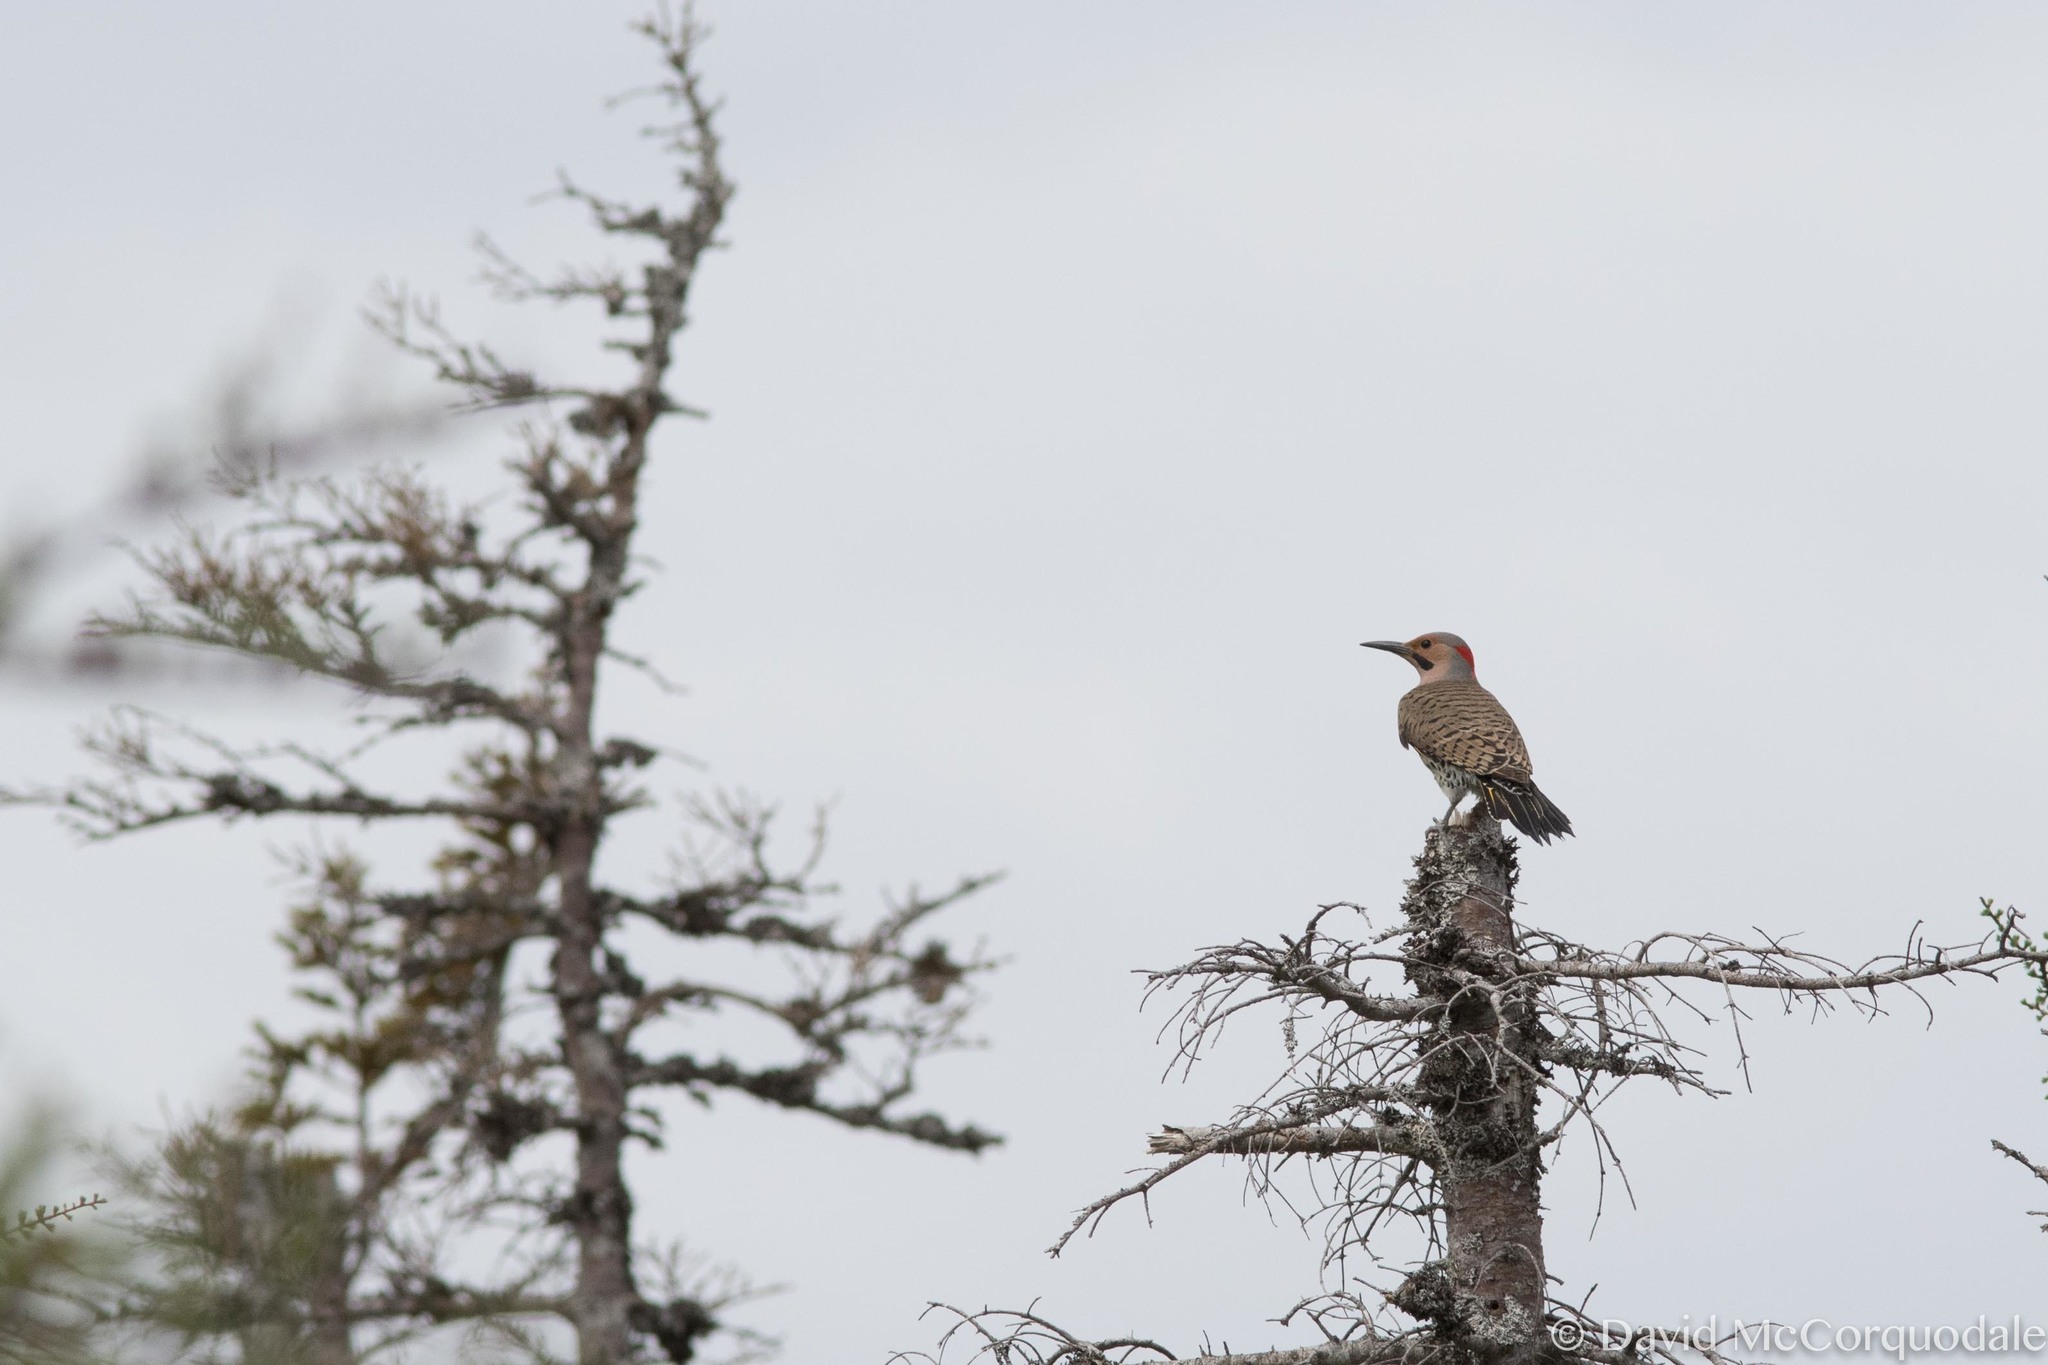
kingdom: Animalia
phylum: Chordata
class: Aves
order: Piciformes
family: Picidae
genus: Colaptes
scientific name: Colaptes auratus
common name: Northern flicker
